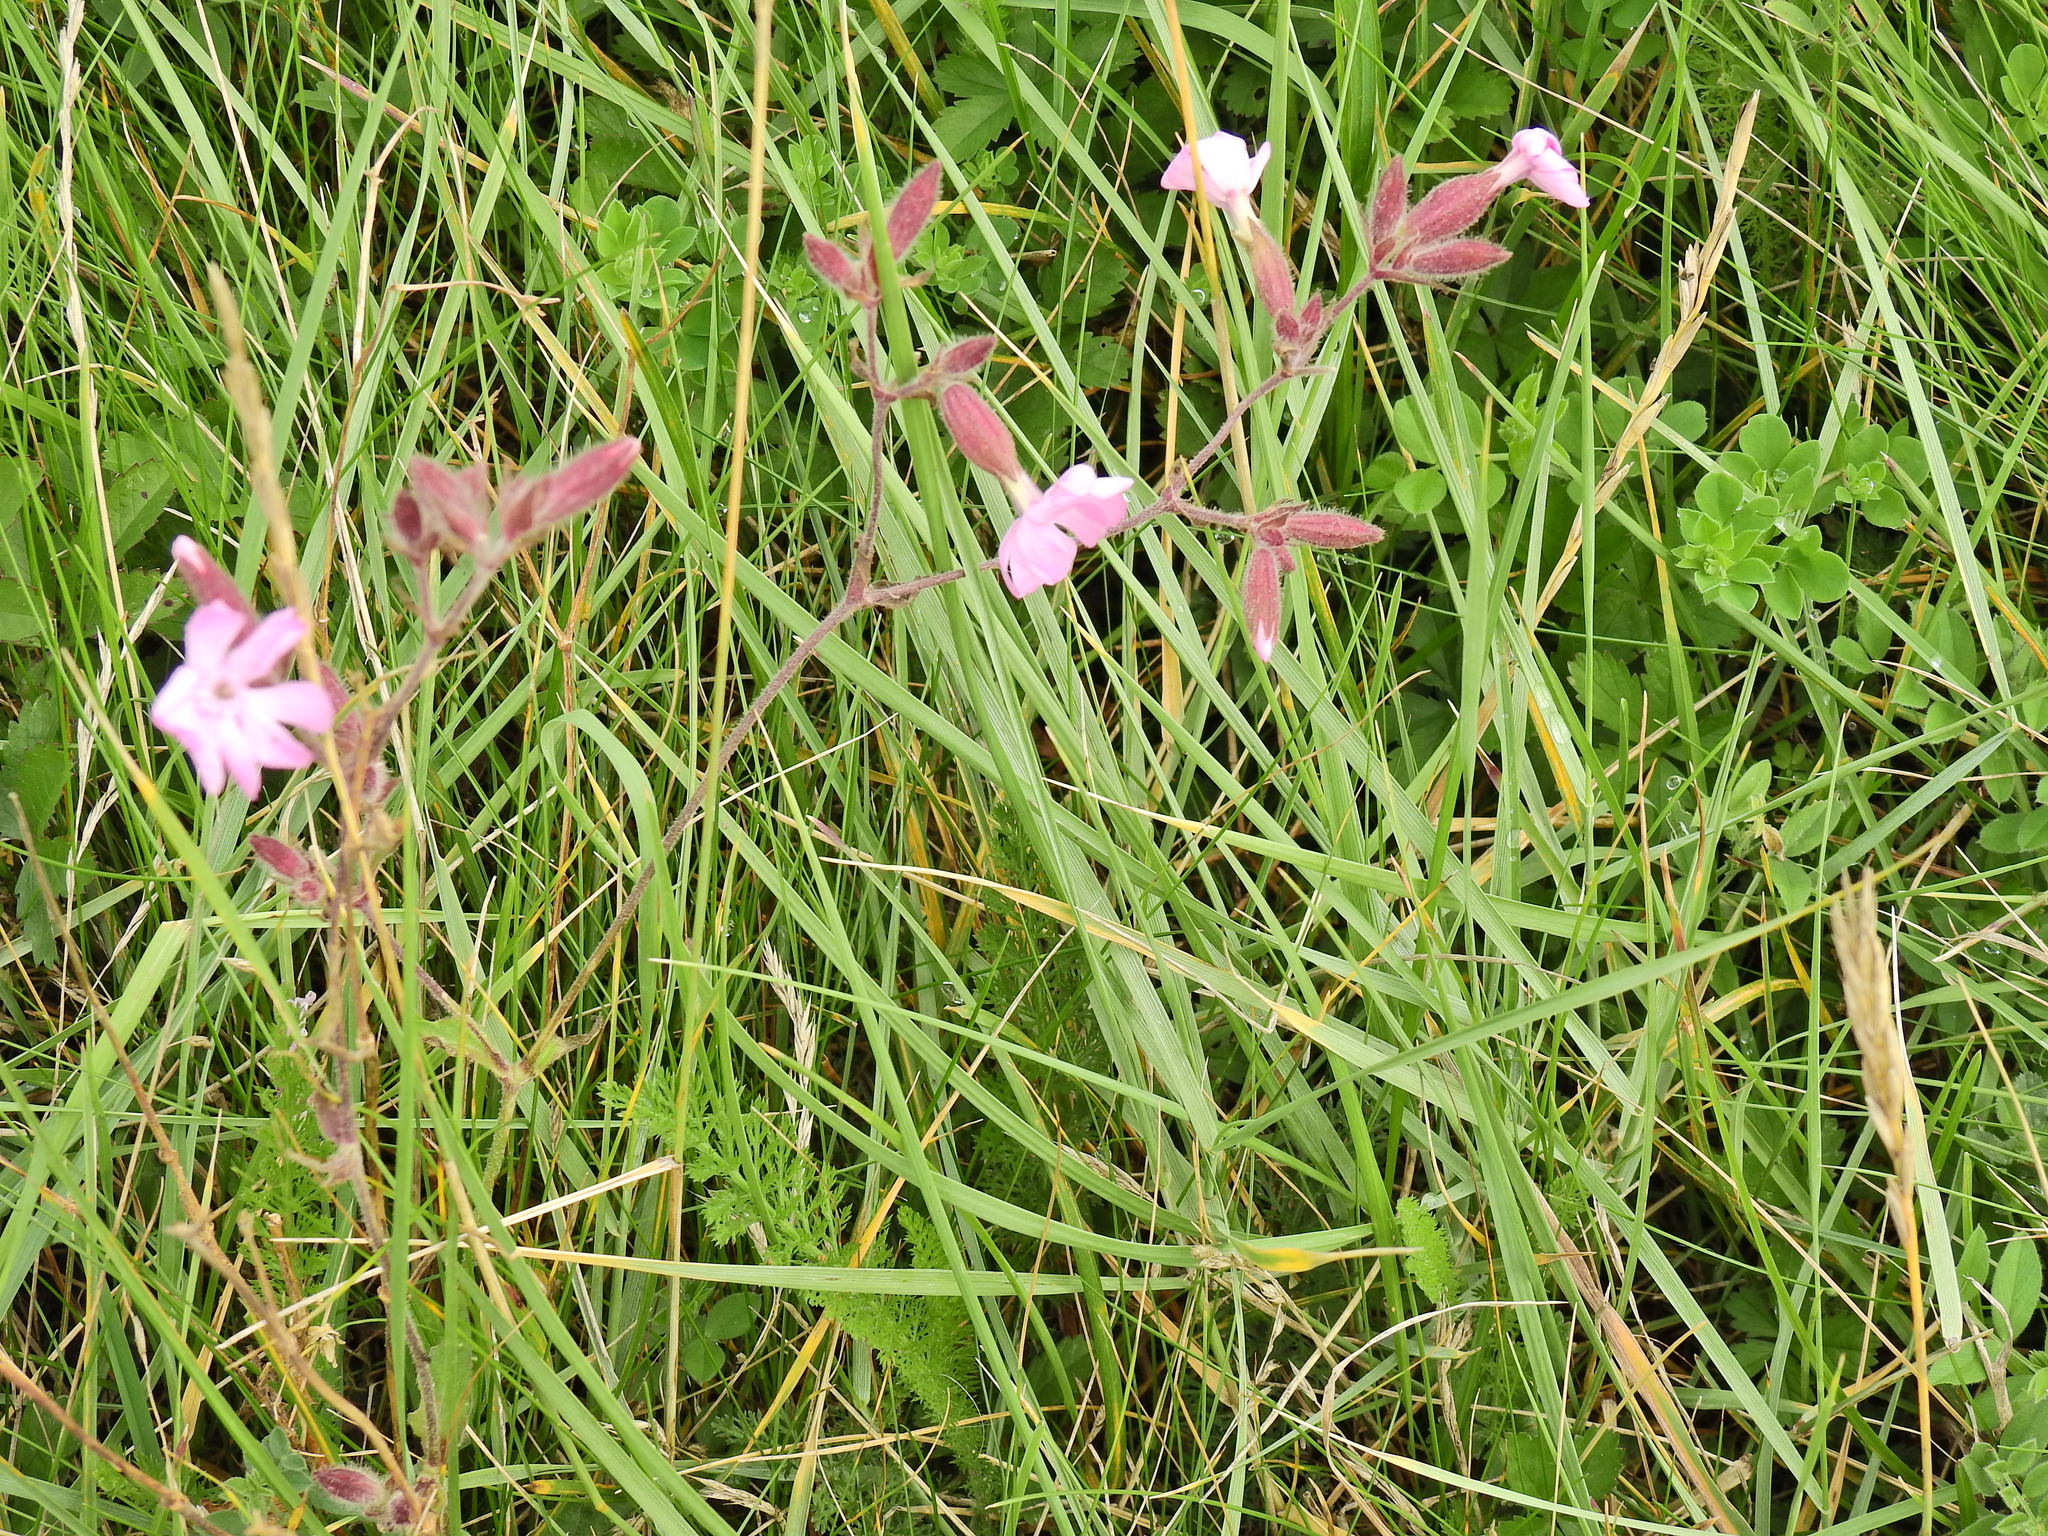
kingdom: Plantae
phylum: Tracheophyta
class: Magnoliopsida
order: Caryophyllales
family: Caryophyllaceae
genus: Silene
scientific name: Silene dioica
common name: Red campion
